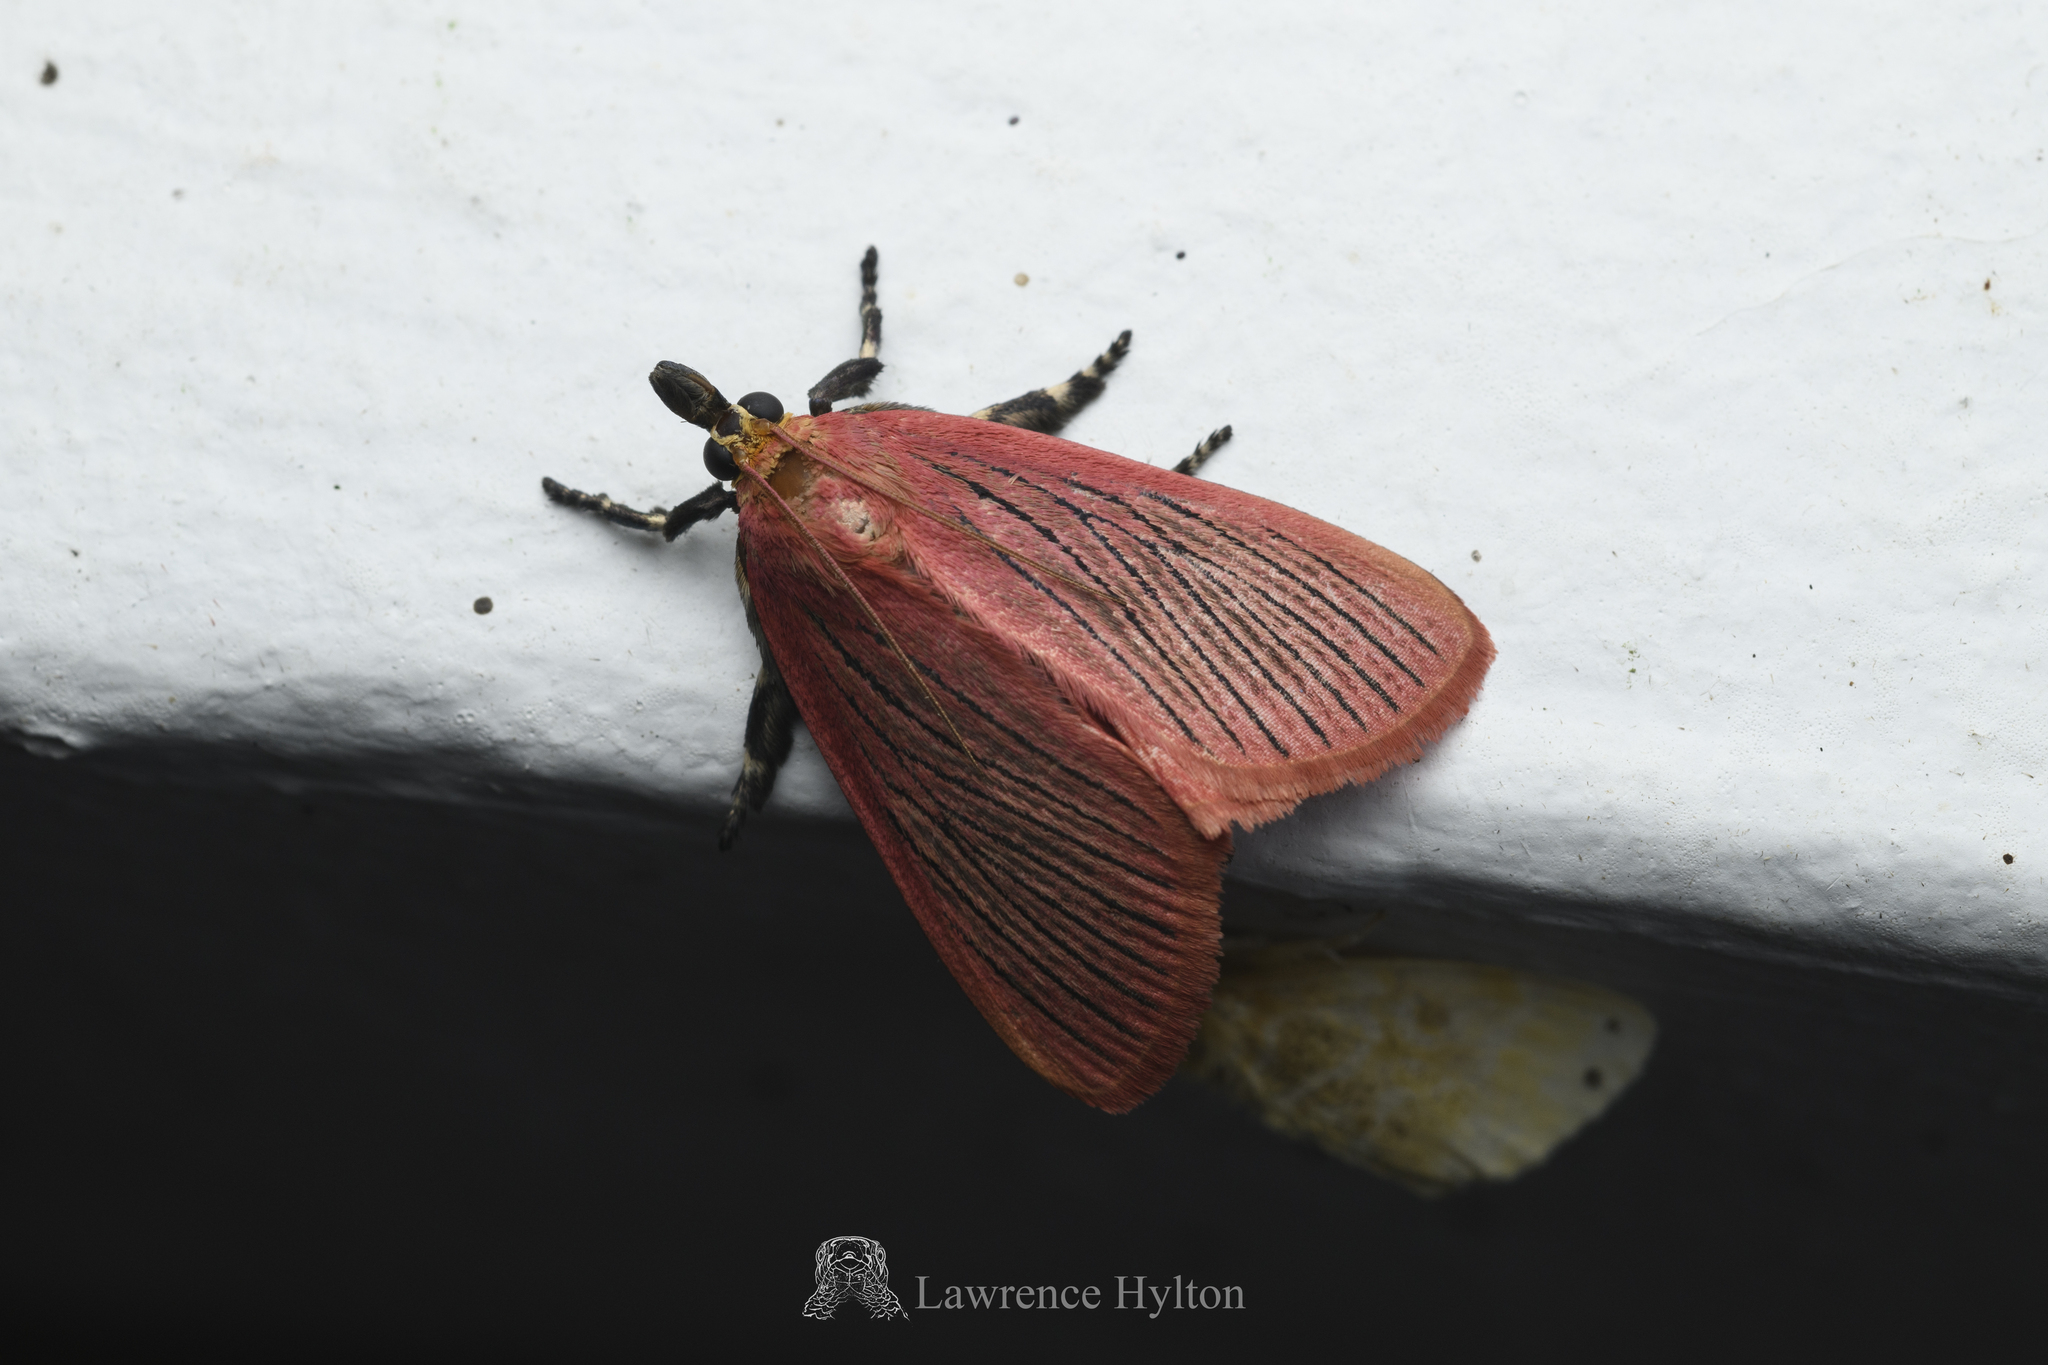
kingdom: Animalia
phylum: Arthropoda
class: Insecta
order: Lepidoptera
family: Pyralidae
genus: Arctioblepsis
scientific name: Arctioblepsis rubida
